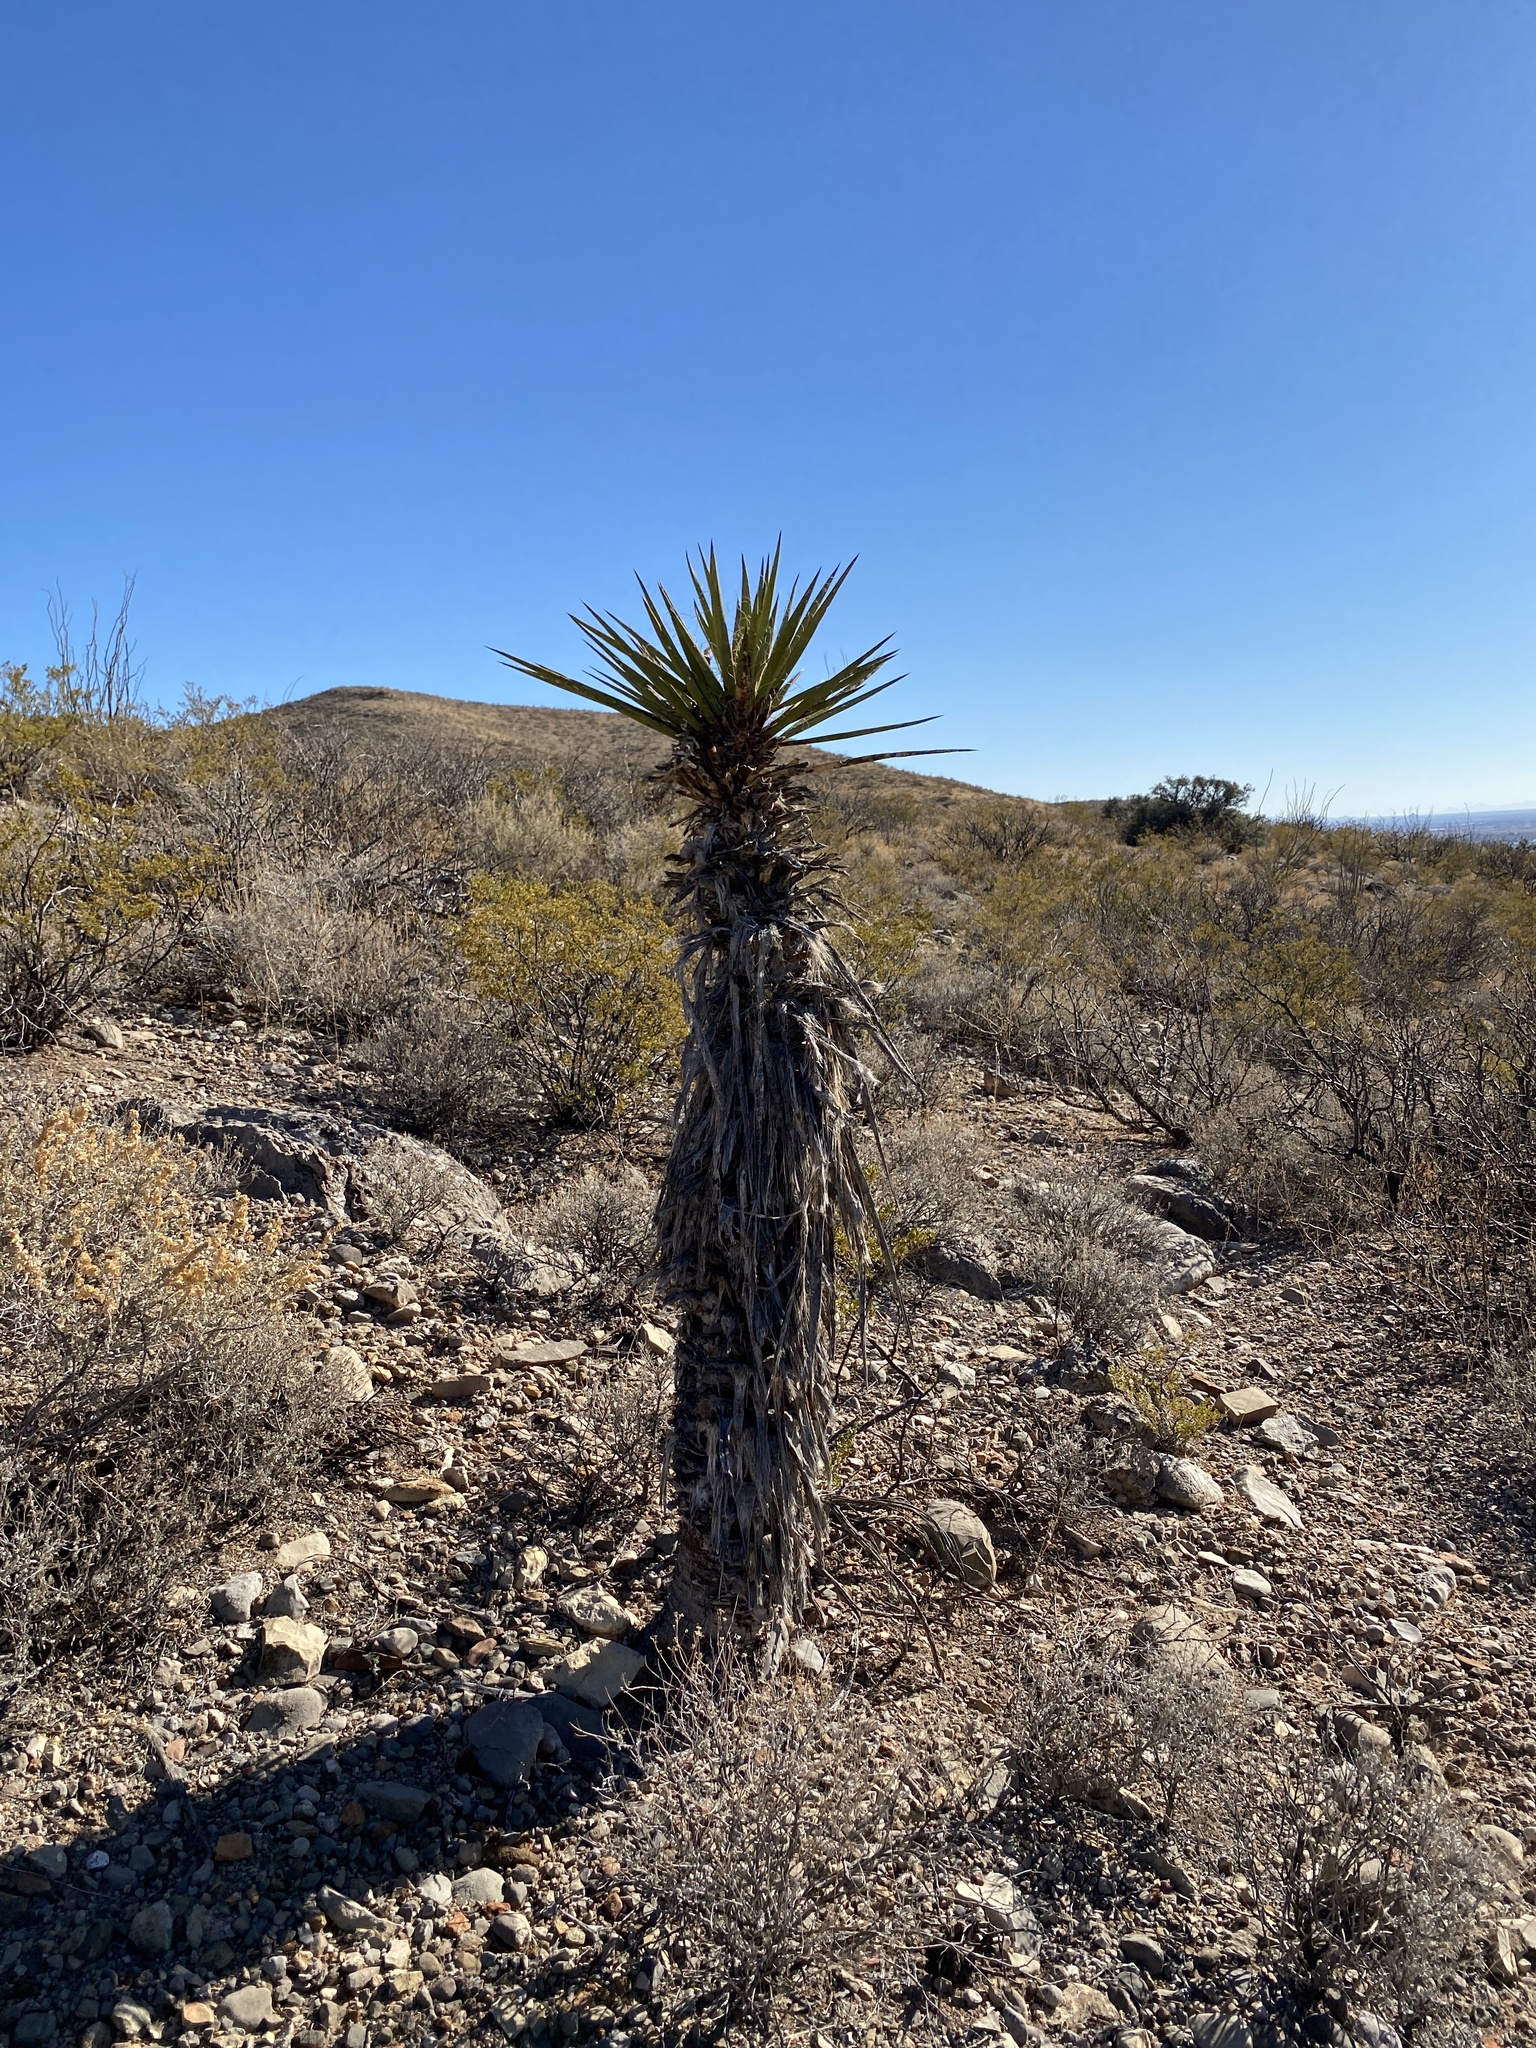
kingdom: Plantae
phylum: Tracheophyta
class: Liliopsida
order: Asparagales
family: Asparagaceae
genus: Yucca
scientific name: Yucca treculiana
